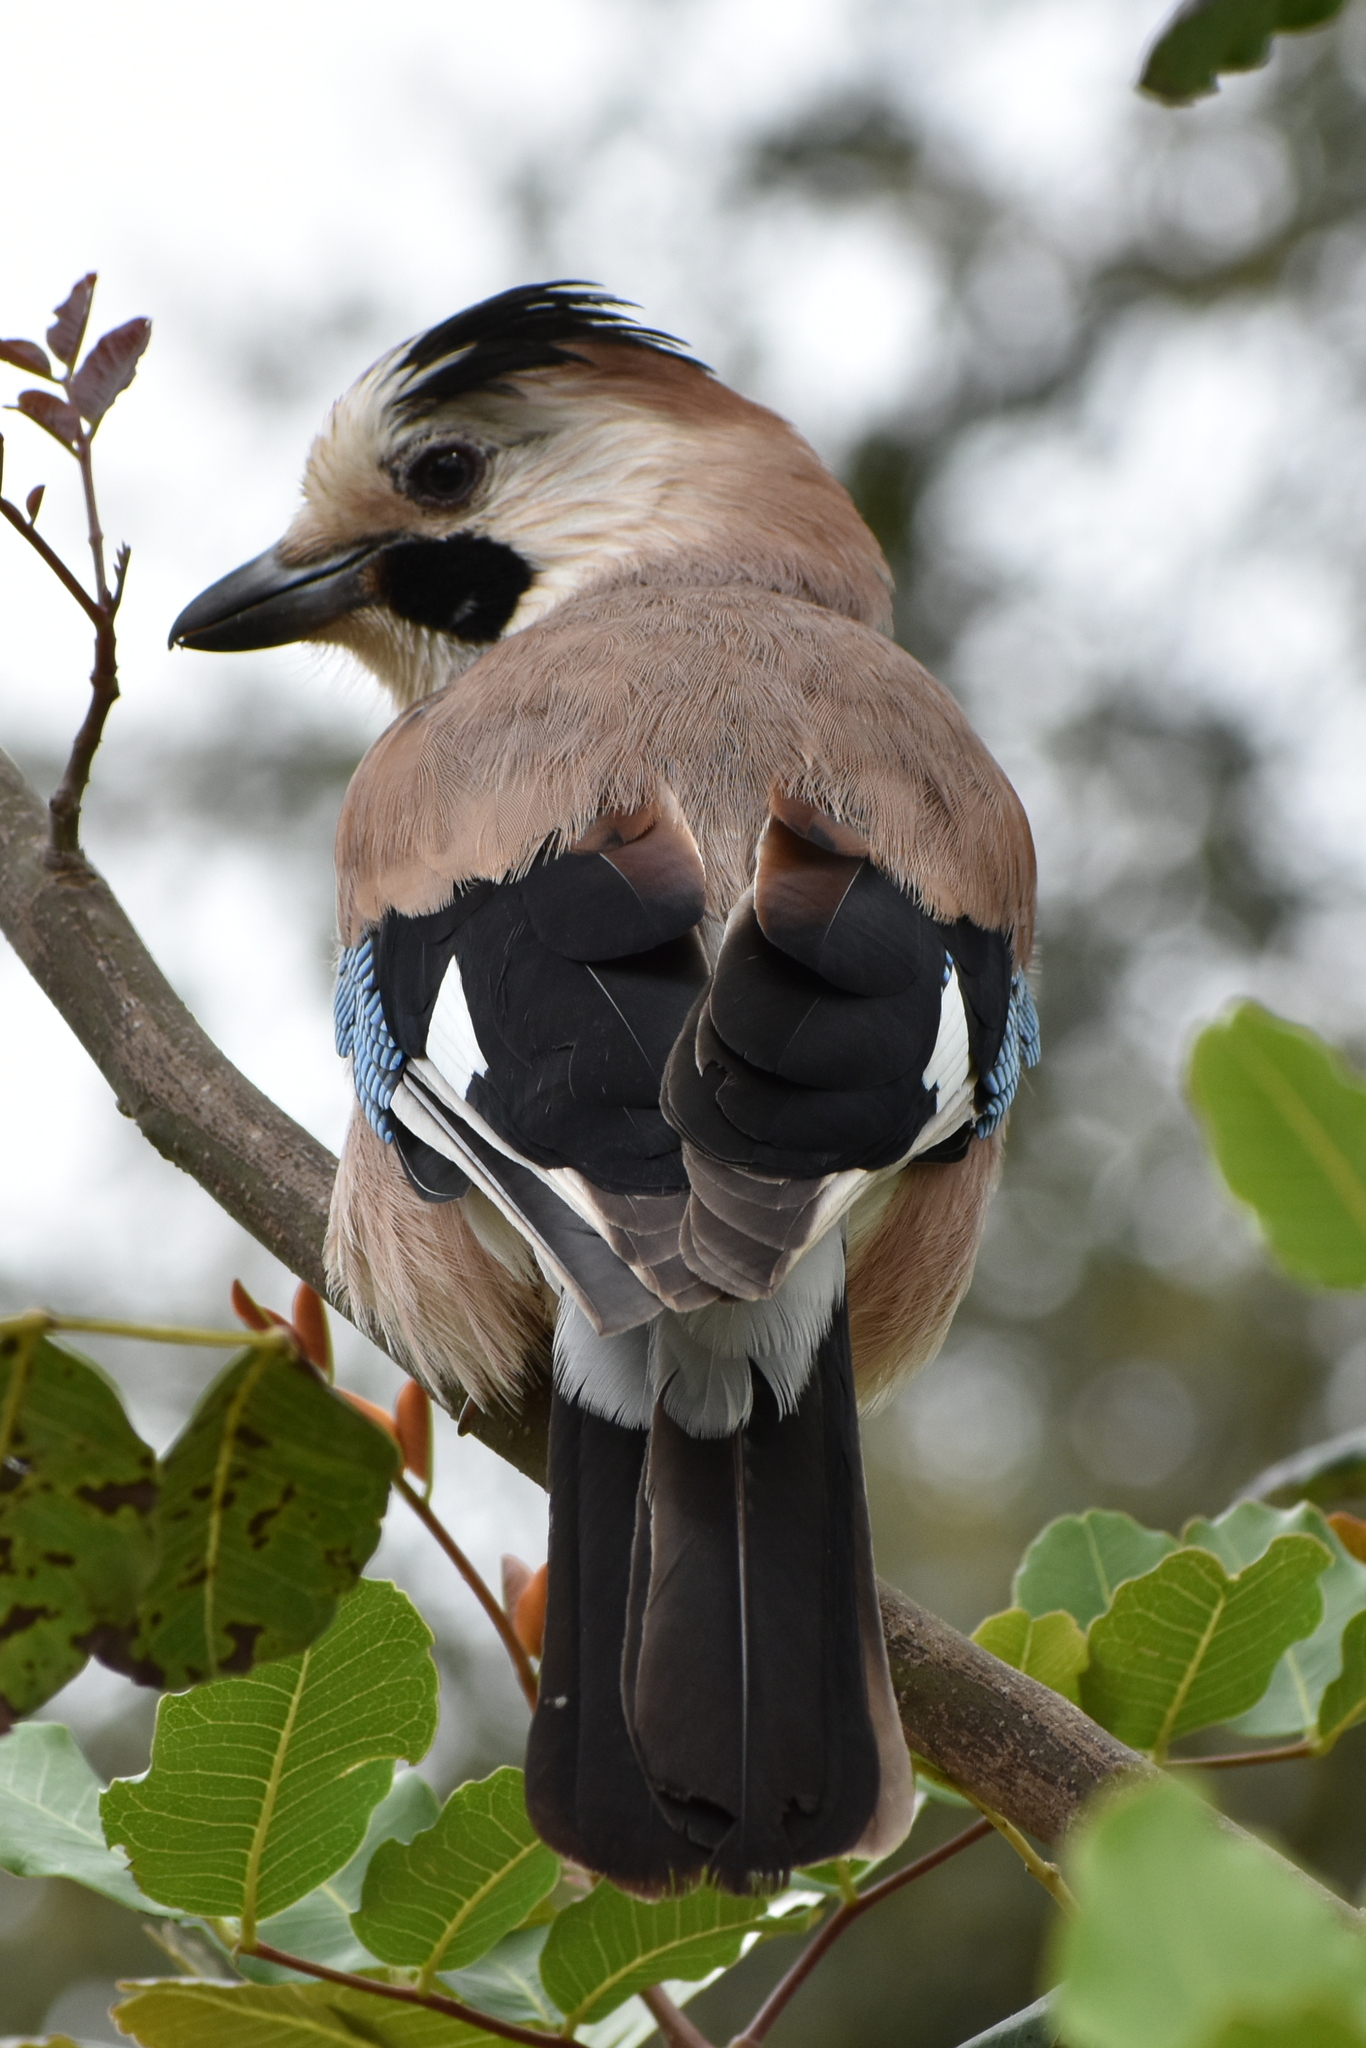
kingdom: Animalia
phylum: Chordata
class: Aves
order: Passeriformes
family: Corvidae
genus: Garrulus
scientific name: Garrulus glandarius
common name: Eurasian jay
